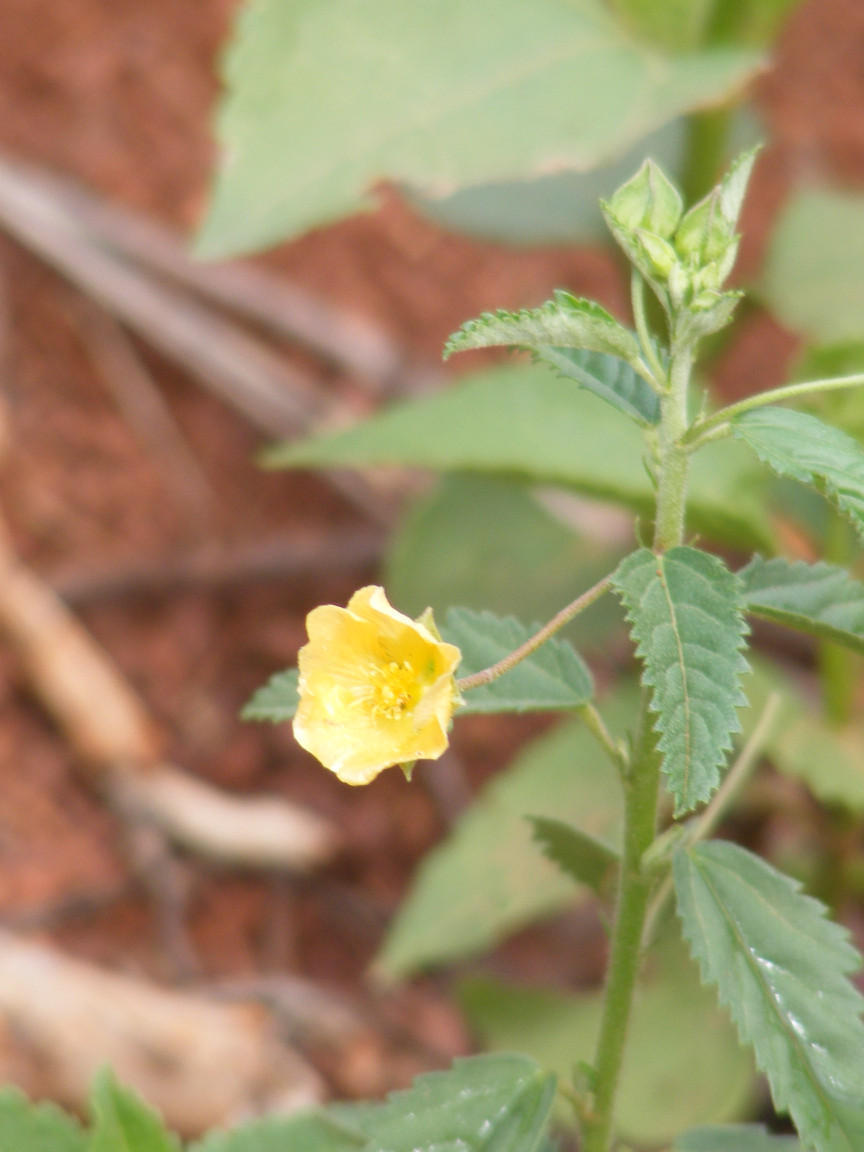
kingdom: Plantae
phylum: Tracheophyta
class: Magnoliopsida
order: Malvales
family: Malvaceae
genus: Sida
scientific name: Sida lancifolia
